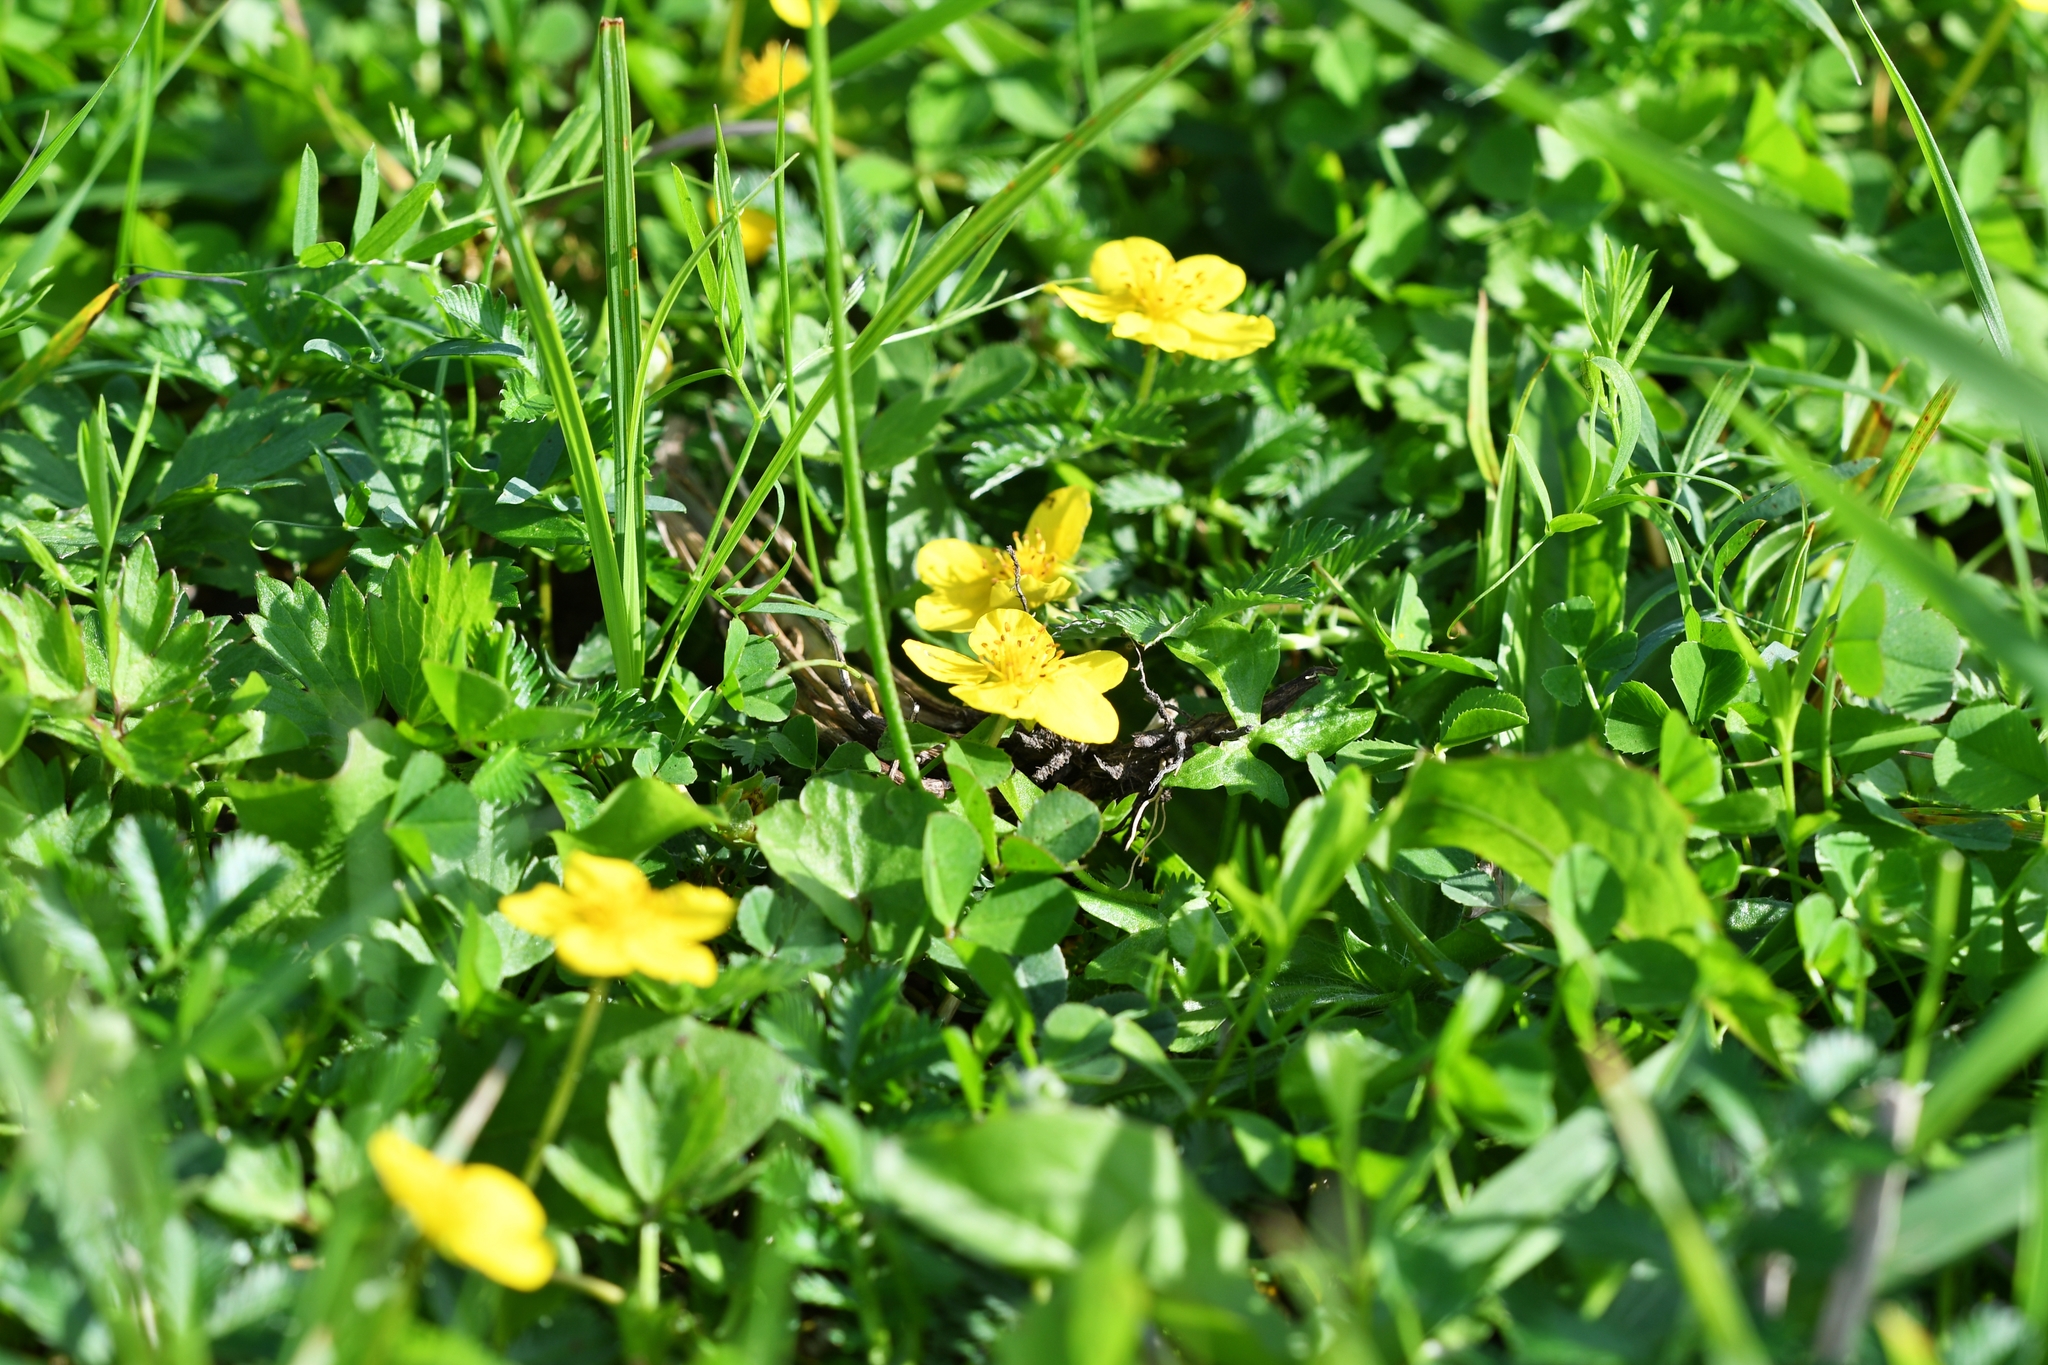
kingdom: Plantae
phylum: Tracheophyta
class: Magnoliopsida
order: Rosales
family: Rosaceae
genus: Argentina
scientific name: Argentina anserina
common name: Common silverweed
